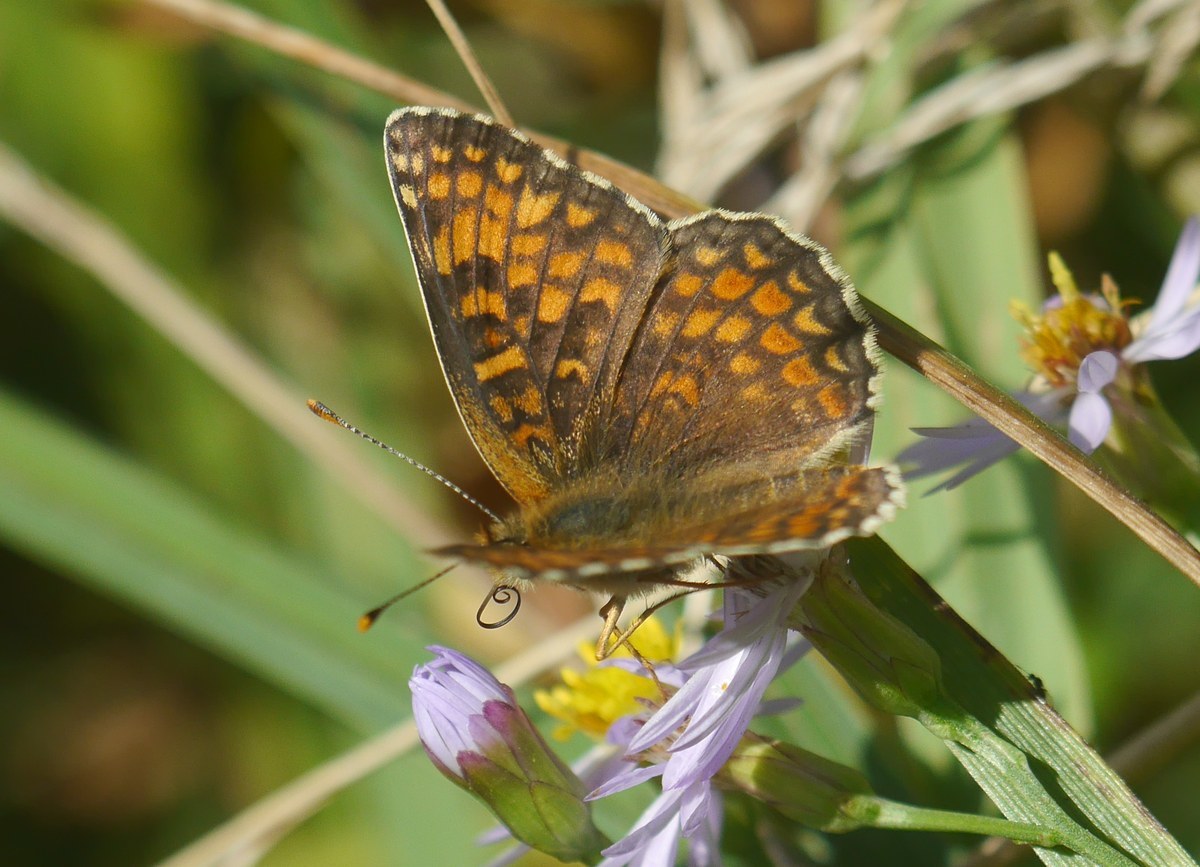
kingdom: Animalia
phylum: Arthropoda
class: Insecta
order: Lepidoptera
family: Nymphalidae
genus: Melitaea
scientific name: Melitaea phoebe
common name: Knapweed fritillary
